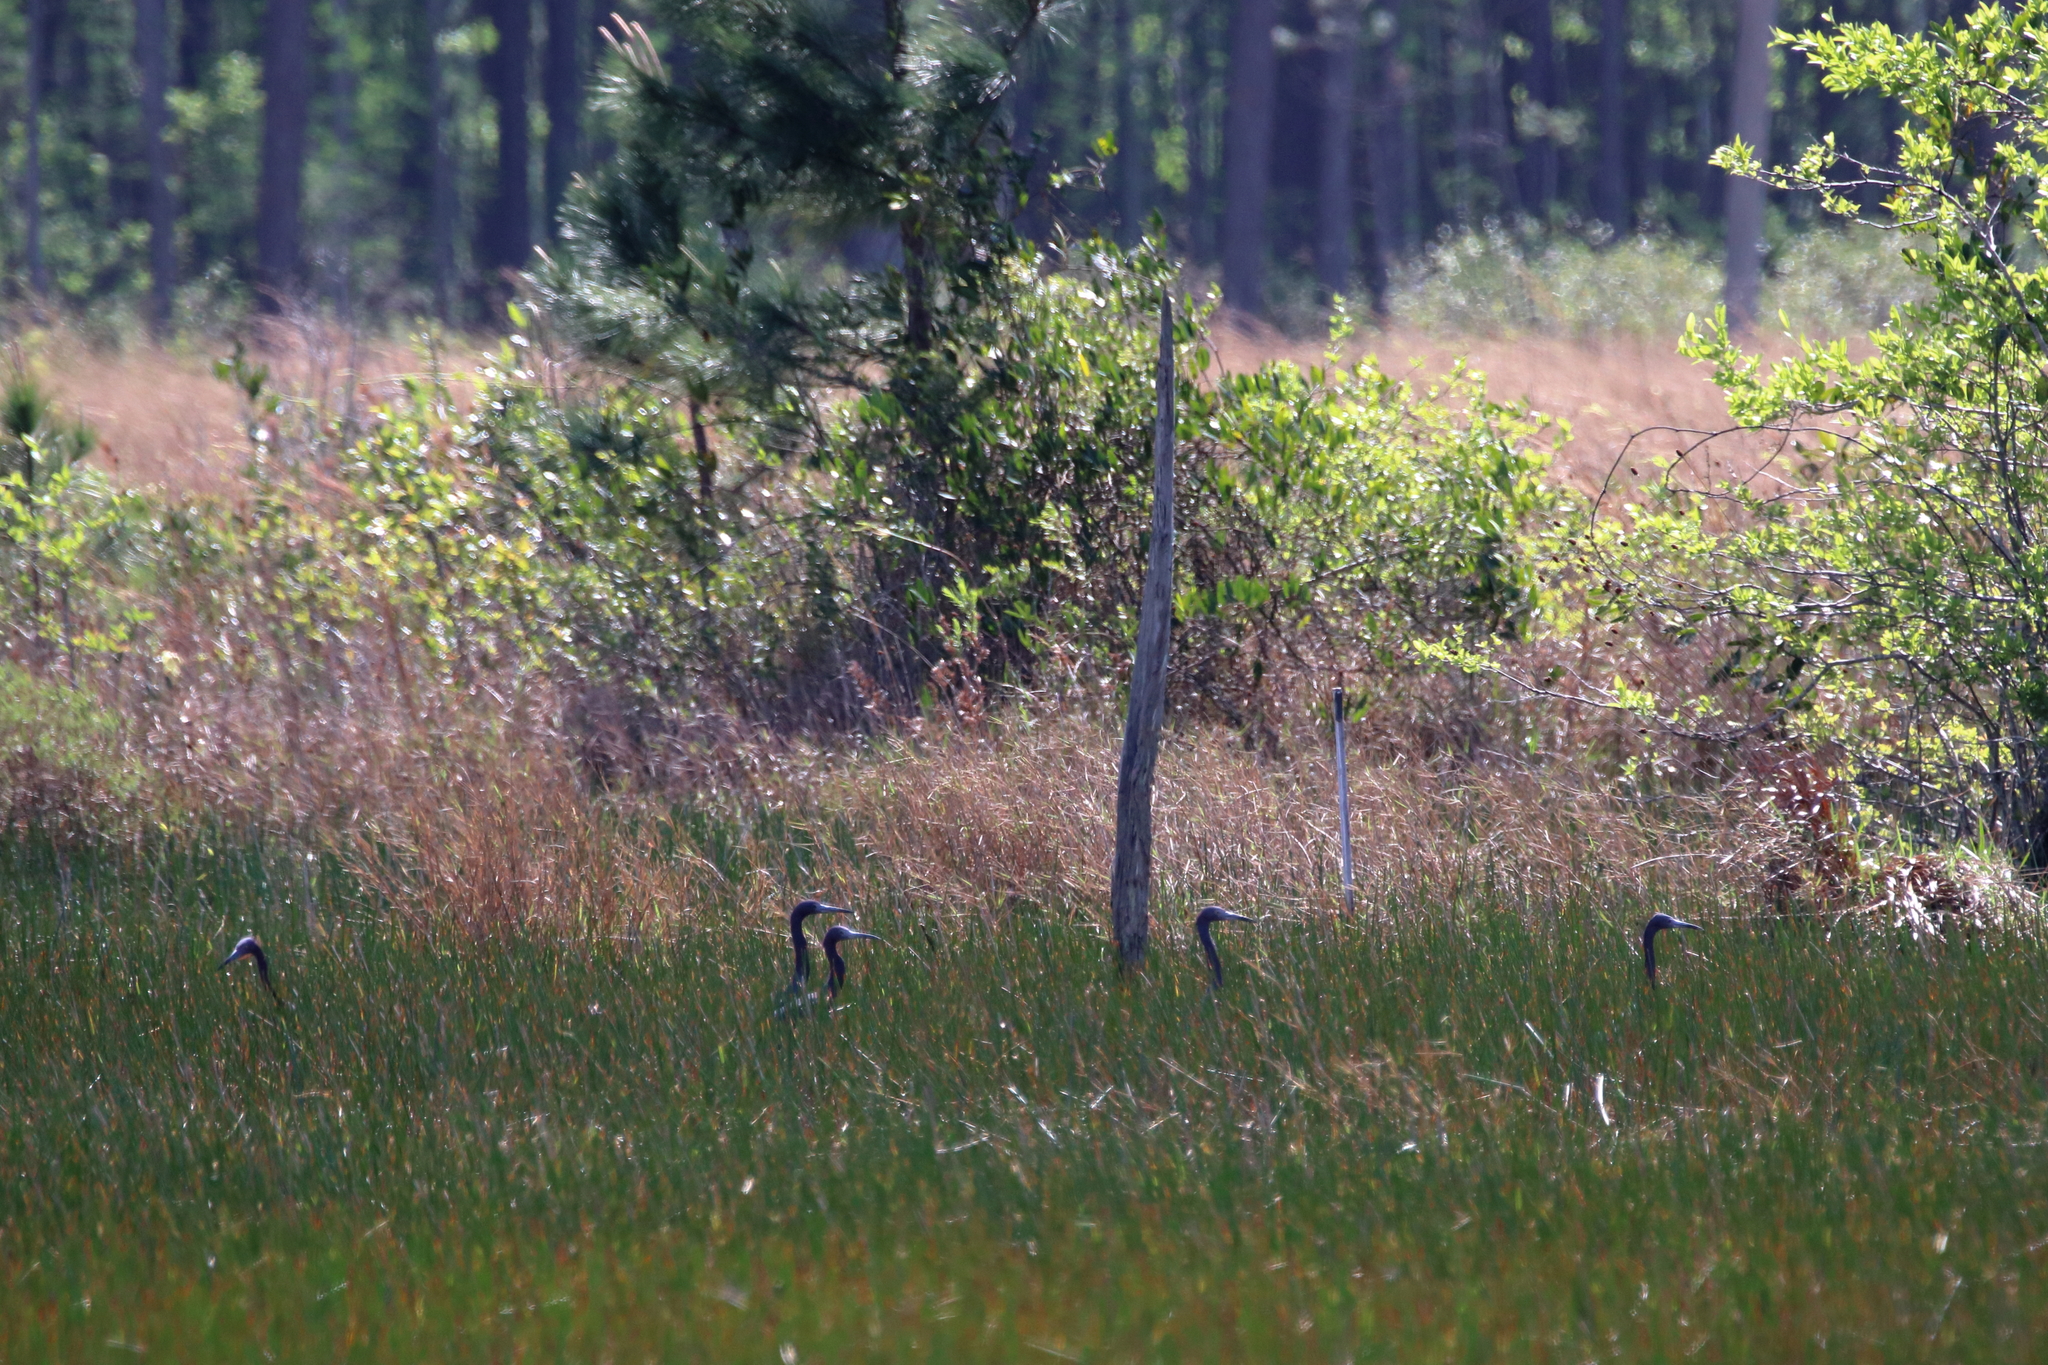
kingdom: Animalia
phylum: Chordata
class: Aves
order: Pelecaniformes
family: Ardeidae
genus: Egretta
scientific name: Egretta caerulea
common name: Little blue heron
